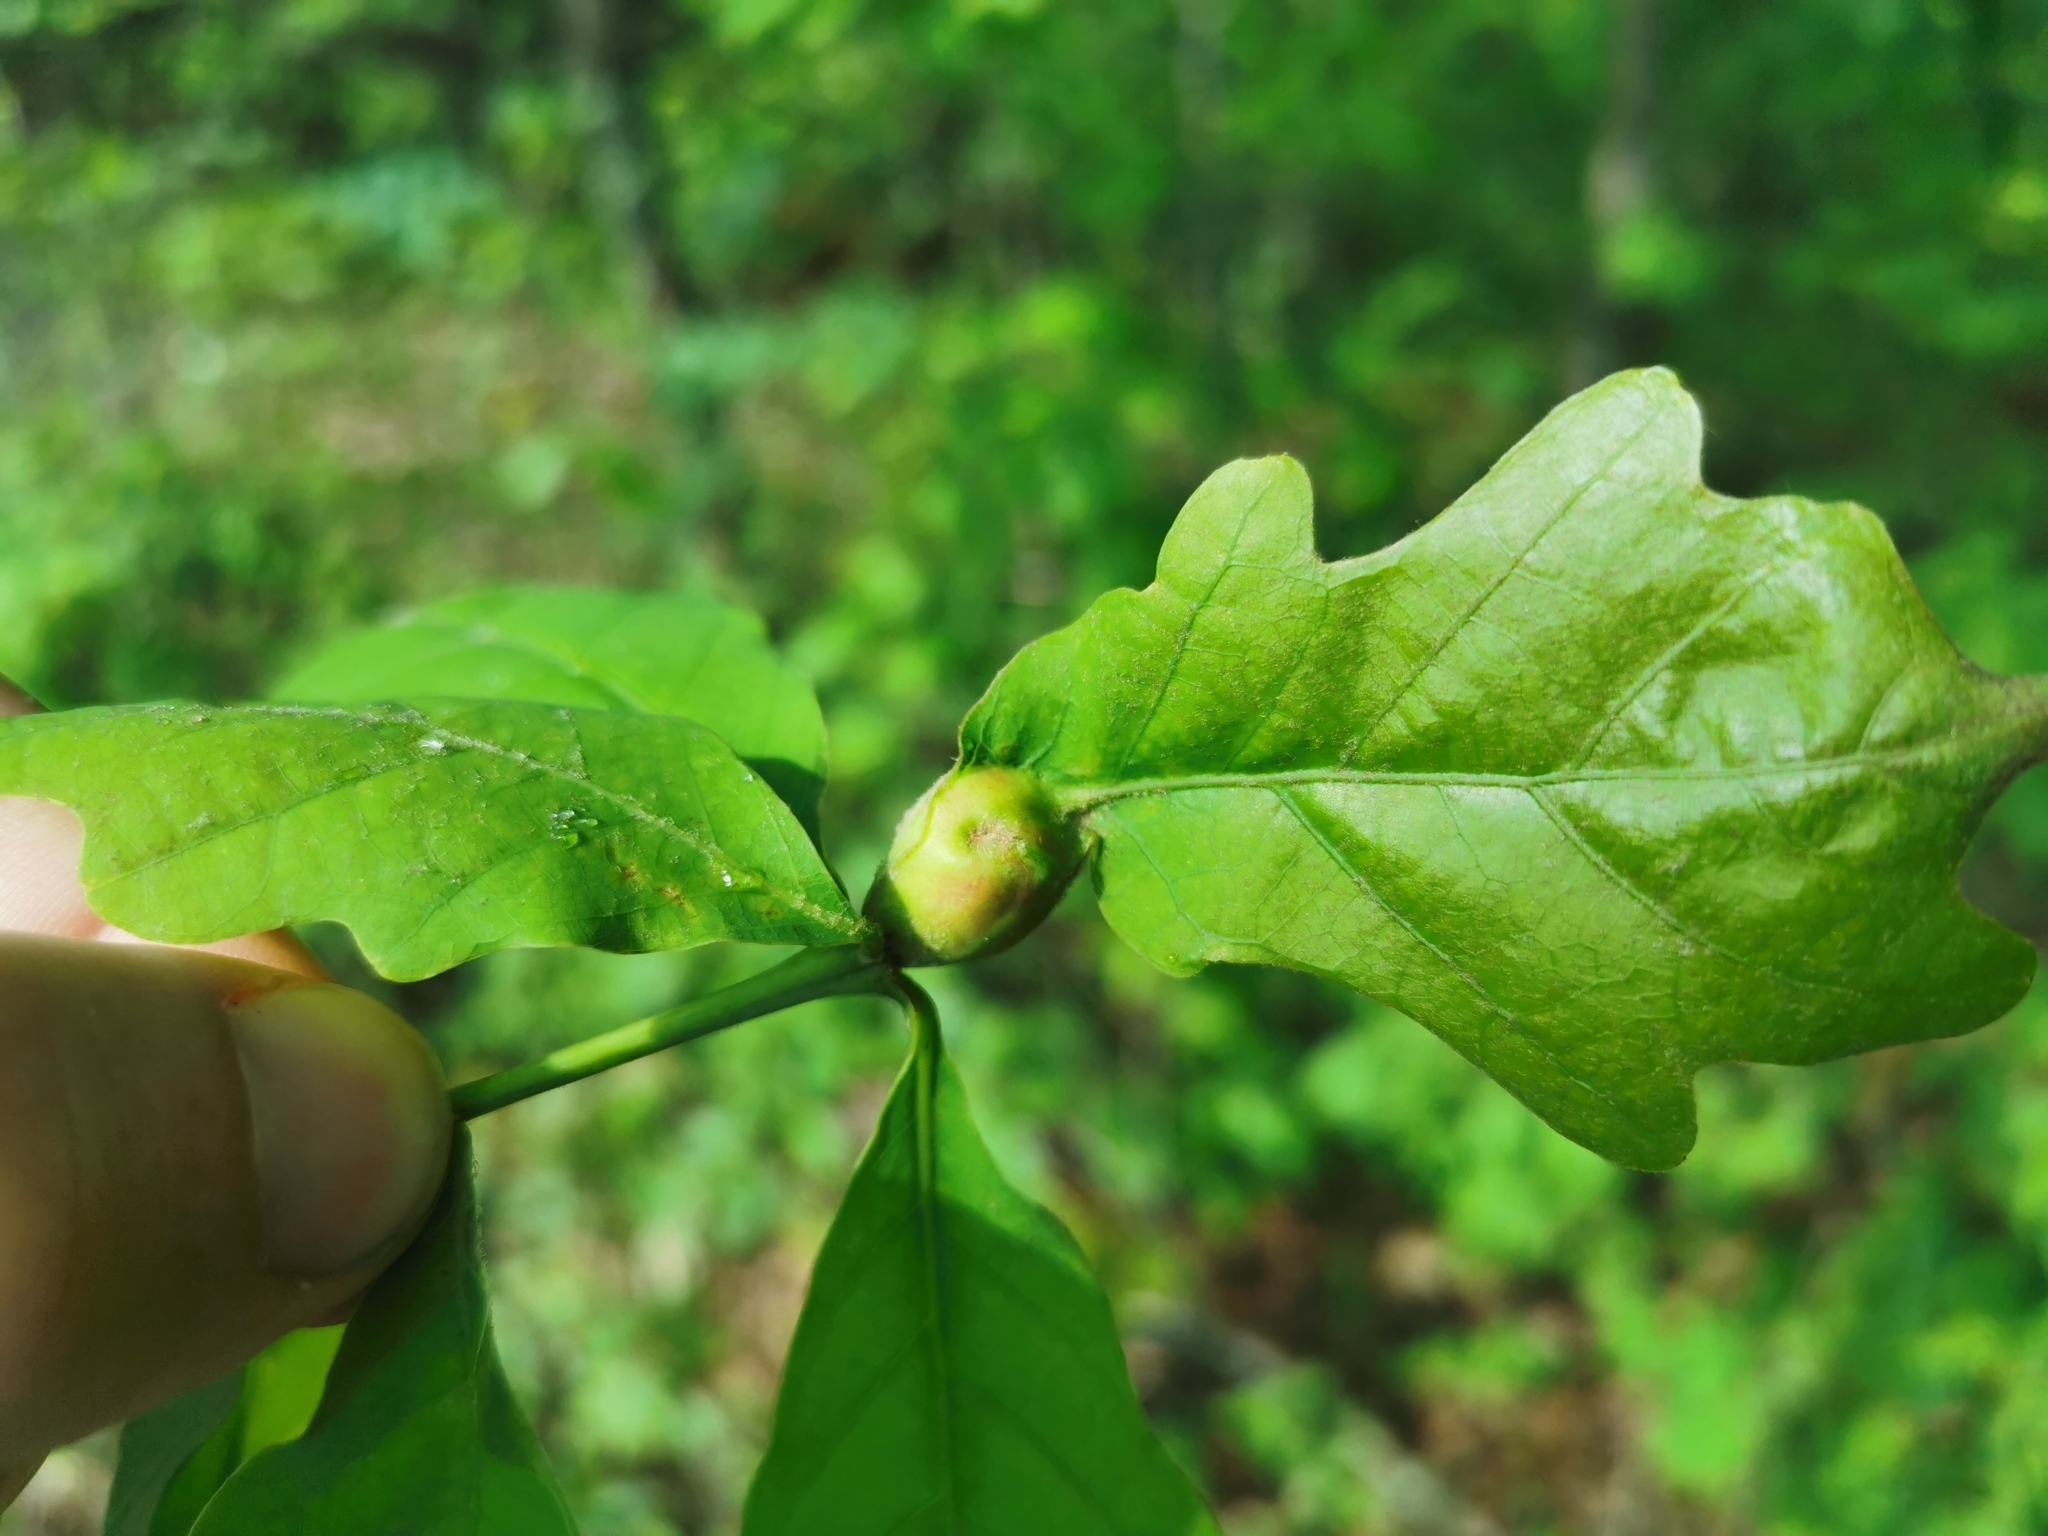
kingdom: Animalia
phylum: Arthropoda
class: Insecta
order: Hymenoptera
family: Cynipidae
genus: Andricus
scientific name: Andricus
